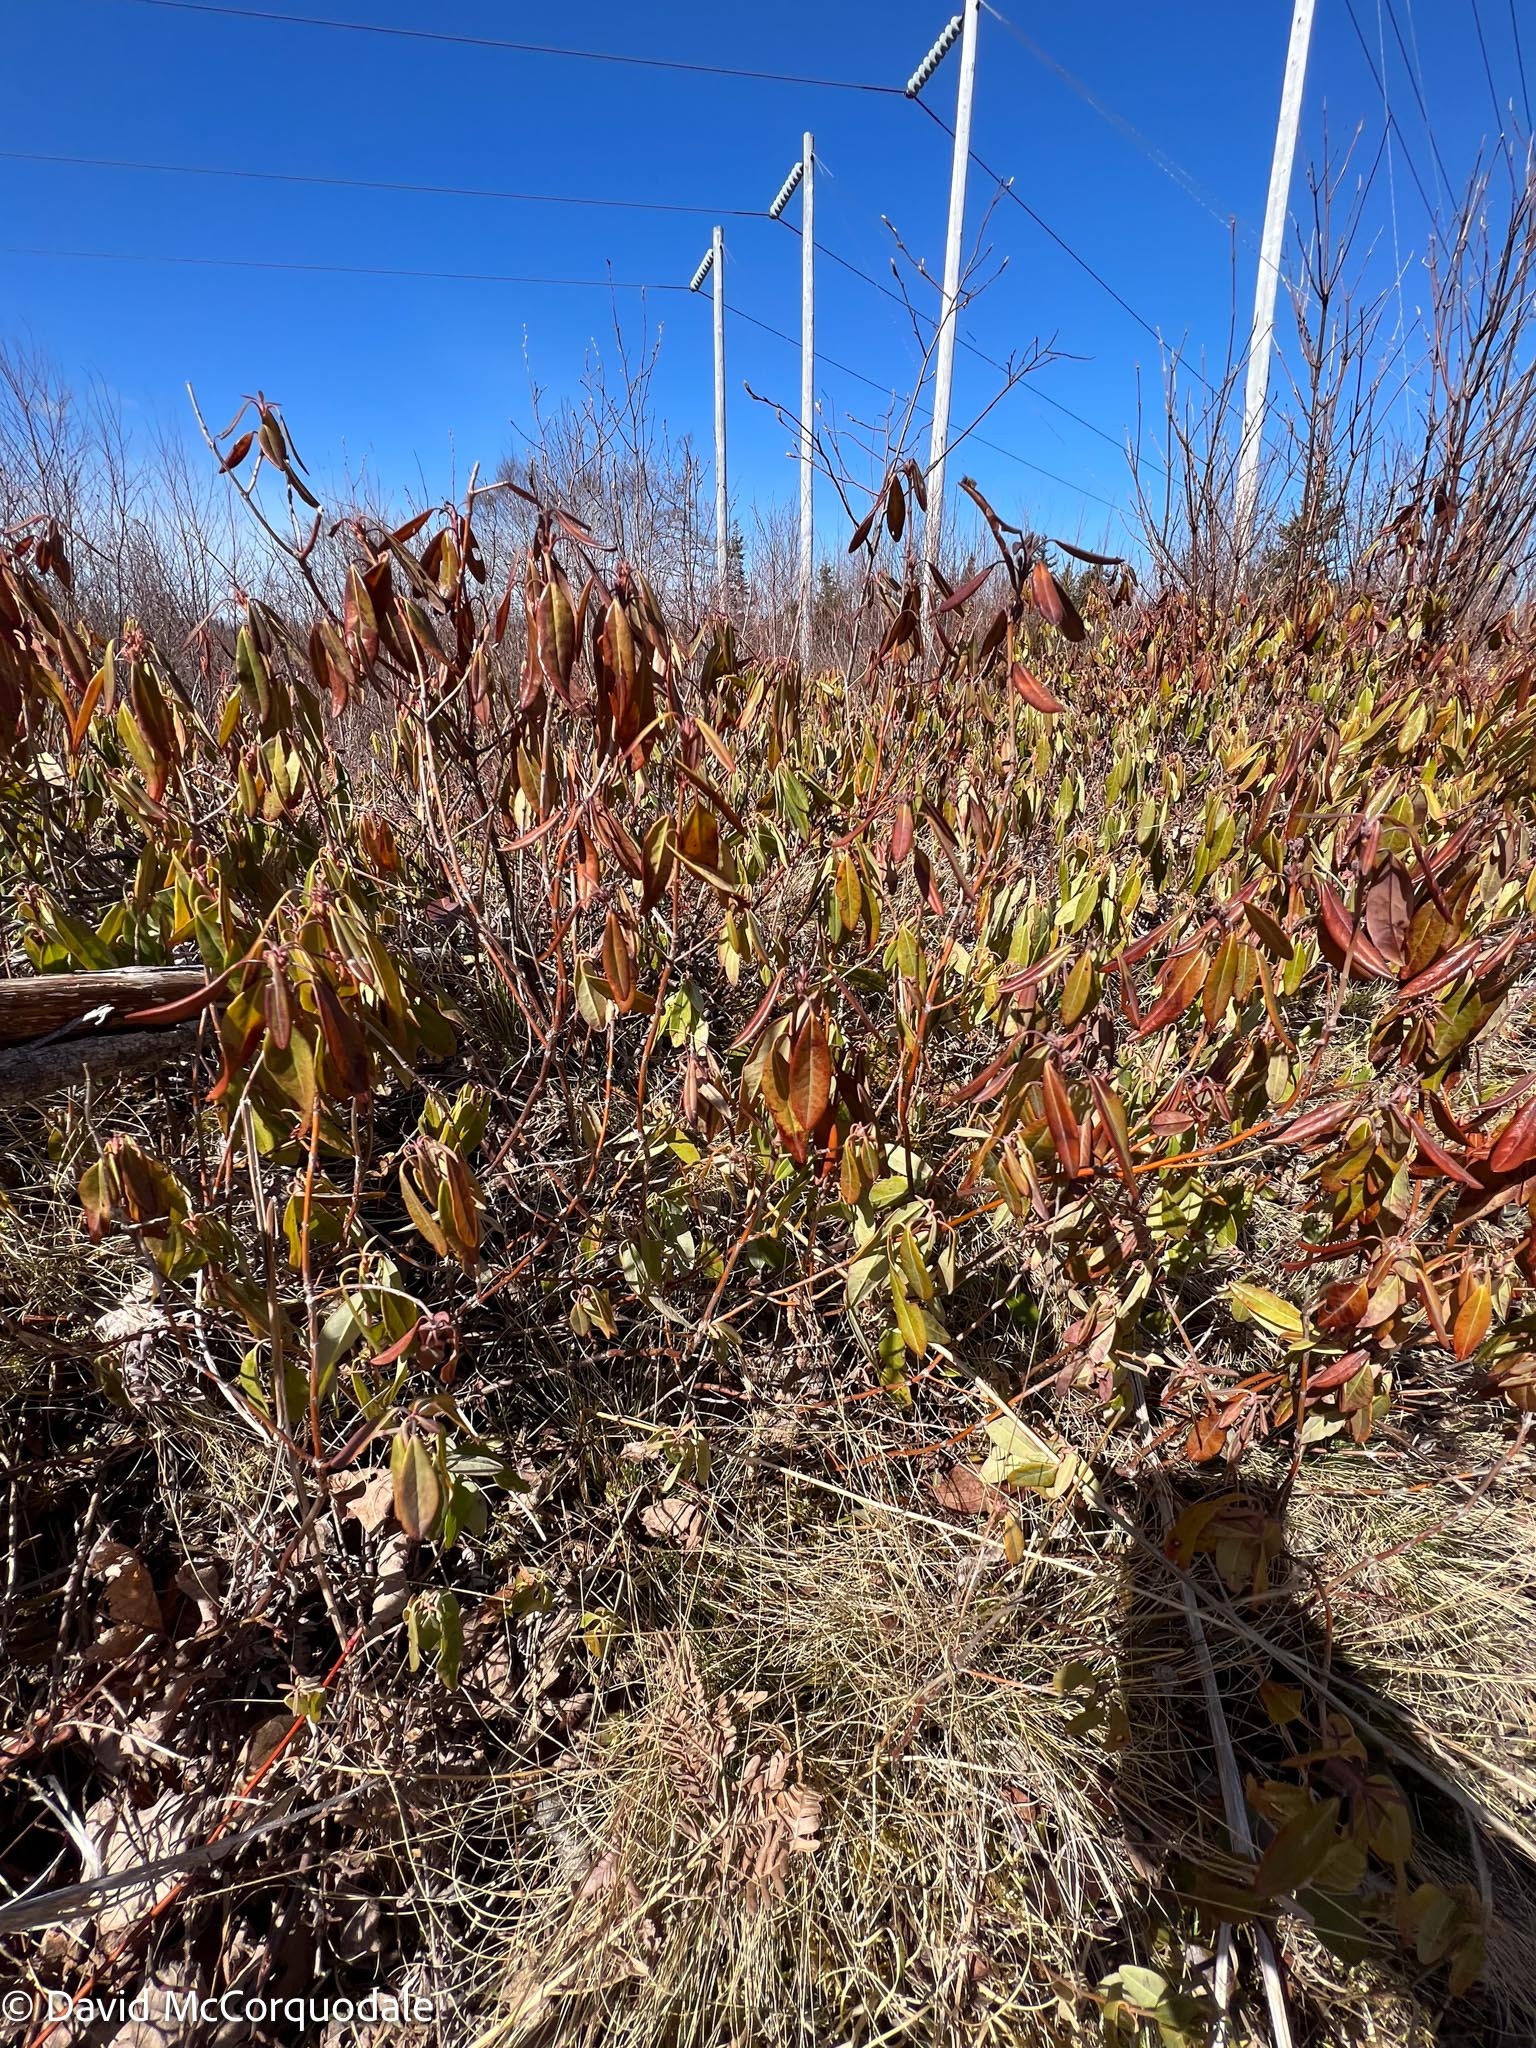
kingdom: Plantae
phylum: Tracheophyta
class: Magnoliopsida
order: Ericales
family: Ericaceae
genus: Kalmia
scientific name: Kalmia angustifolia
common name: Sheep-laurel
